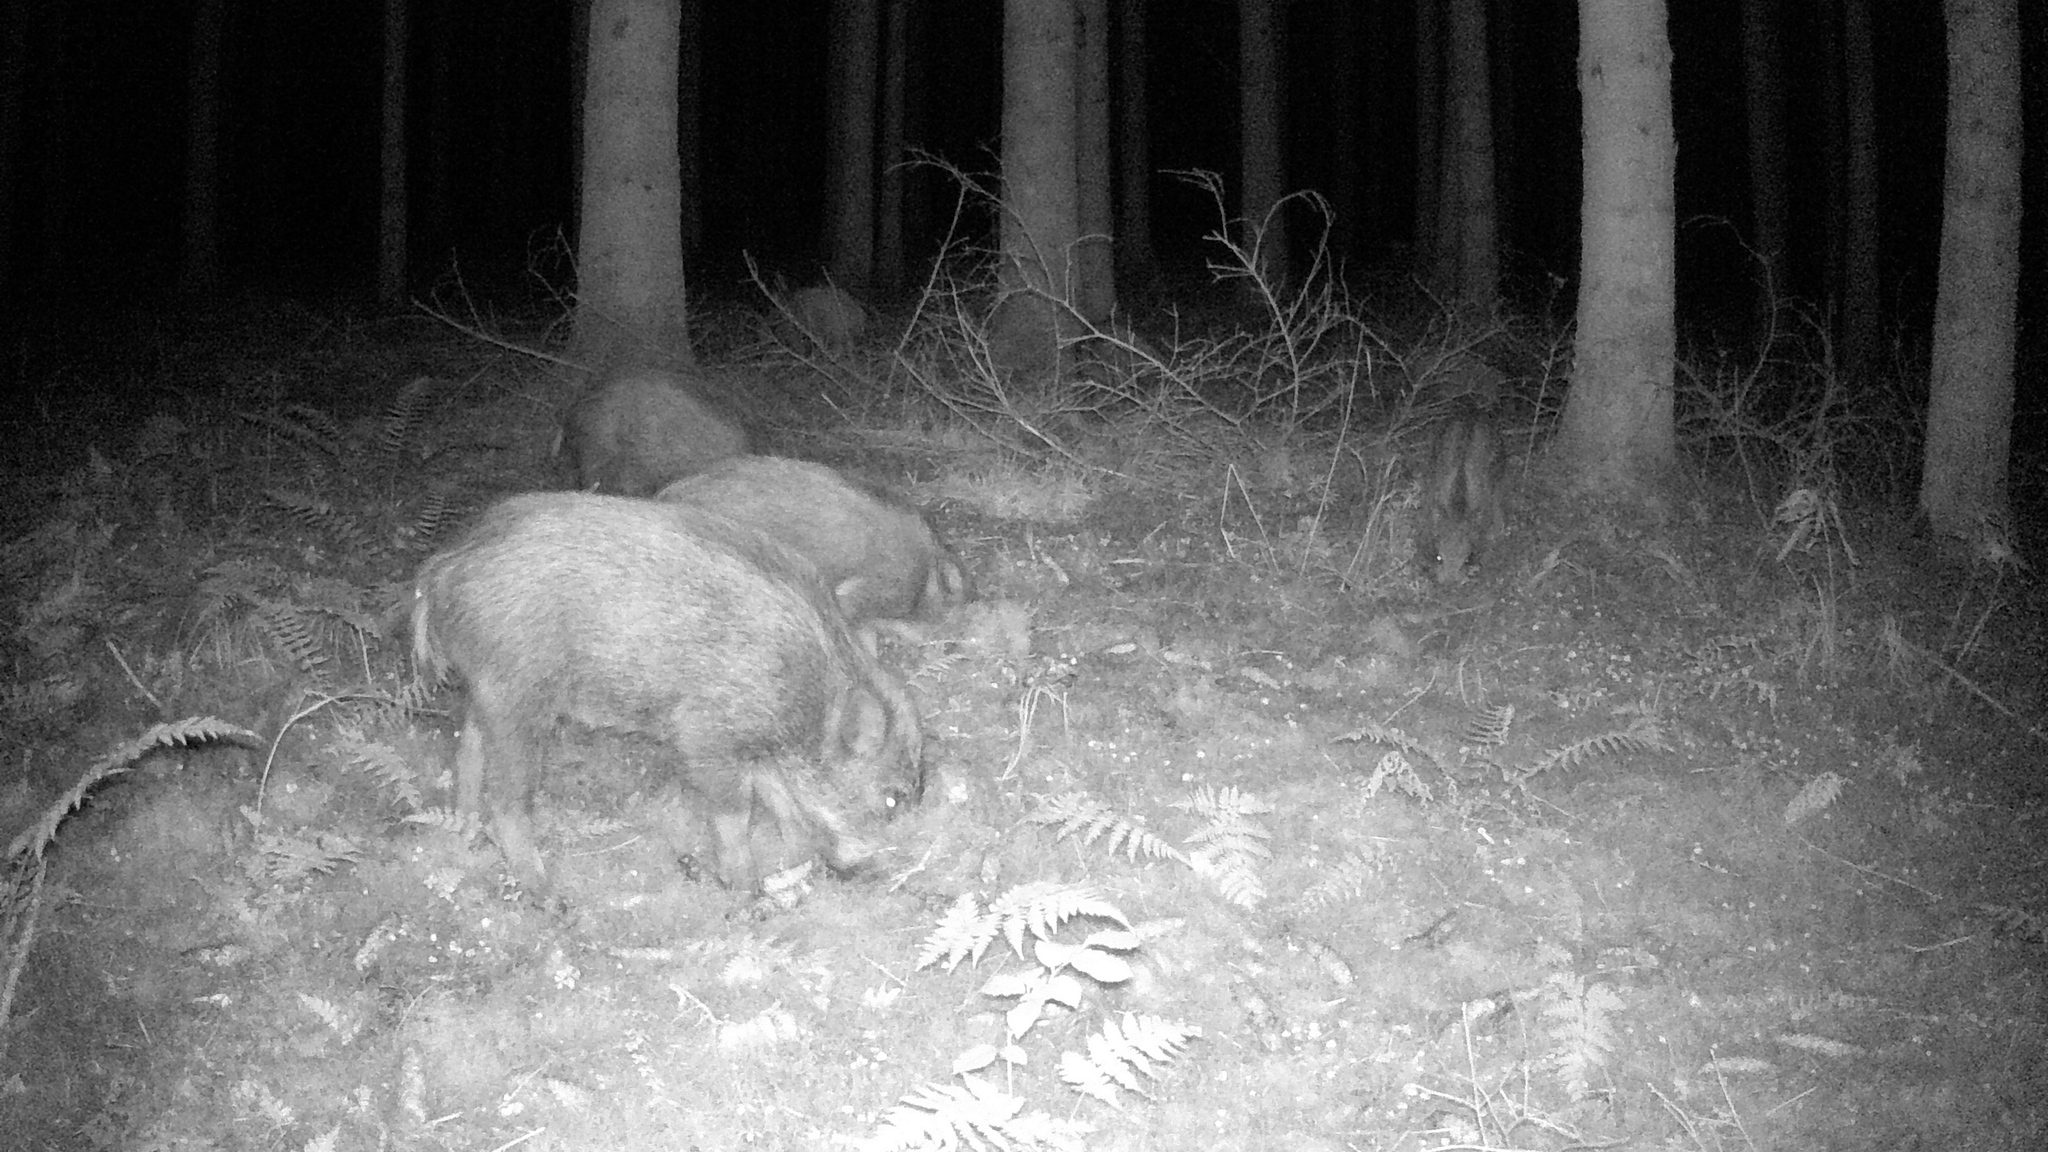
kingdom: Animalia
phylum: Chordata
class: Mammalia
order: Artiodactyla
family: Suidae
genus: Sus
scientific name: Sus scrofa
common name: Wild boar
